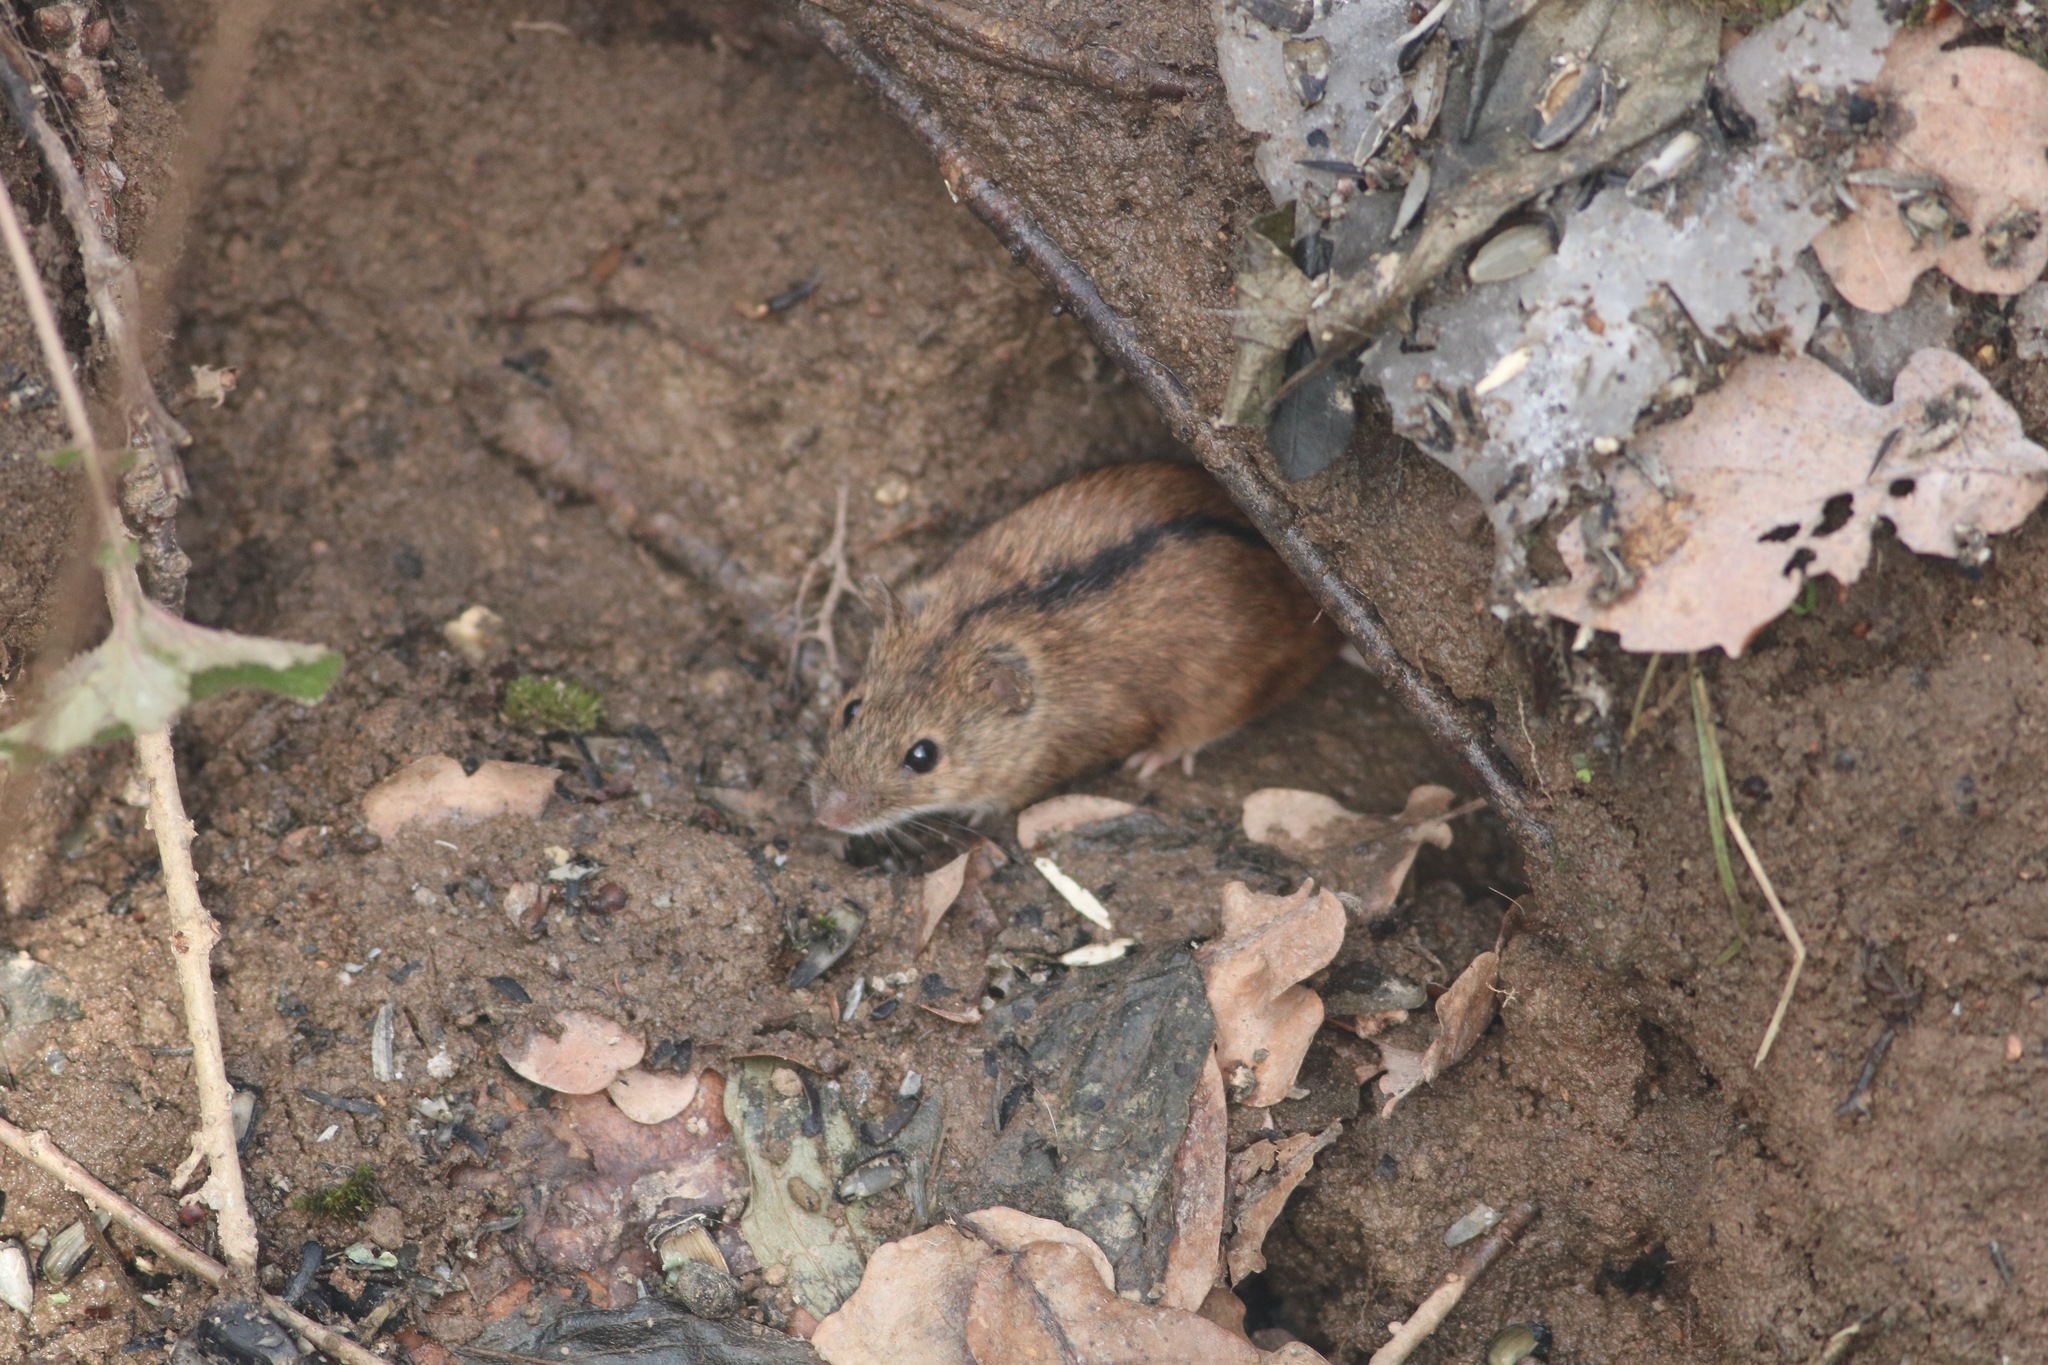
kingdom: Animalia
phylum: Chordata
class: Mammalia
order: Rodentia
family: Muridae
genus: Apodemus
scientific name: Apodemus agrarius
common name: Striped field mouse
